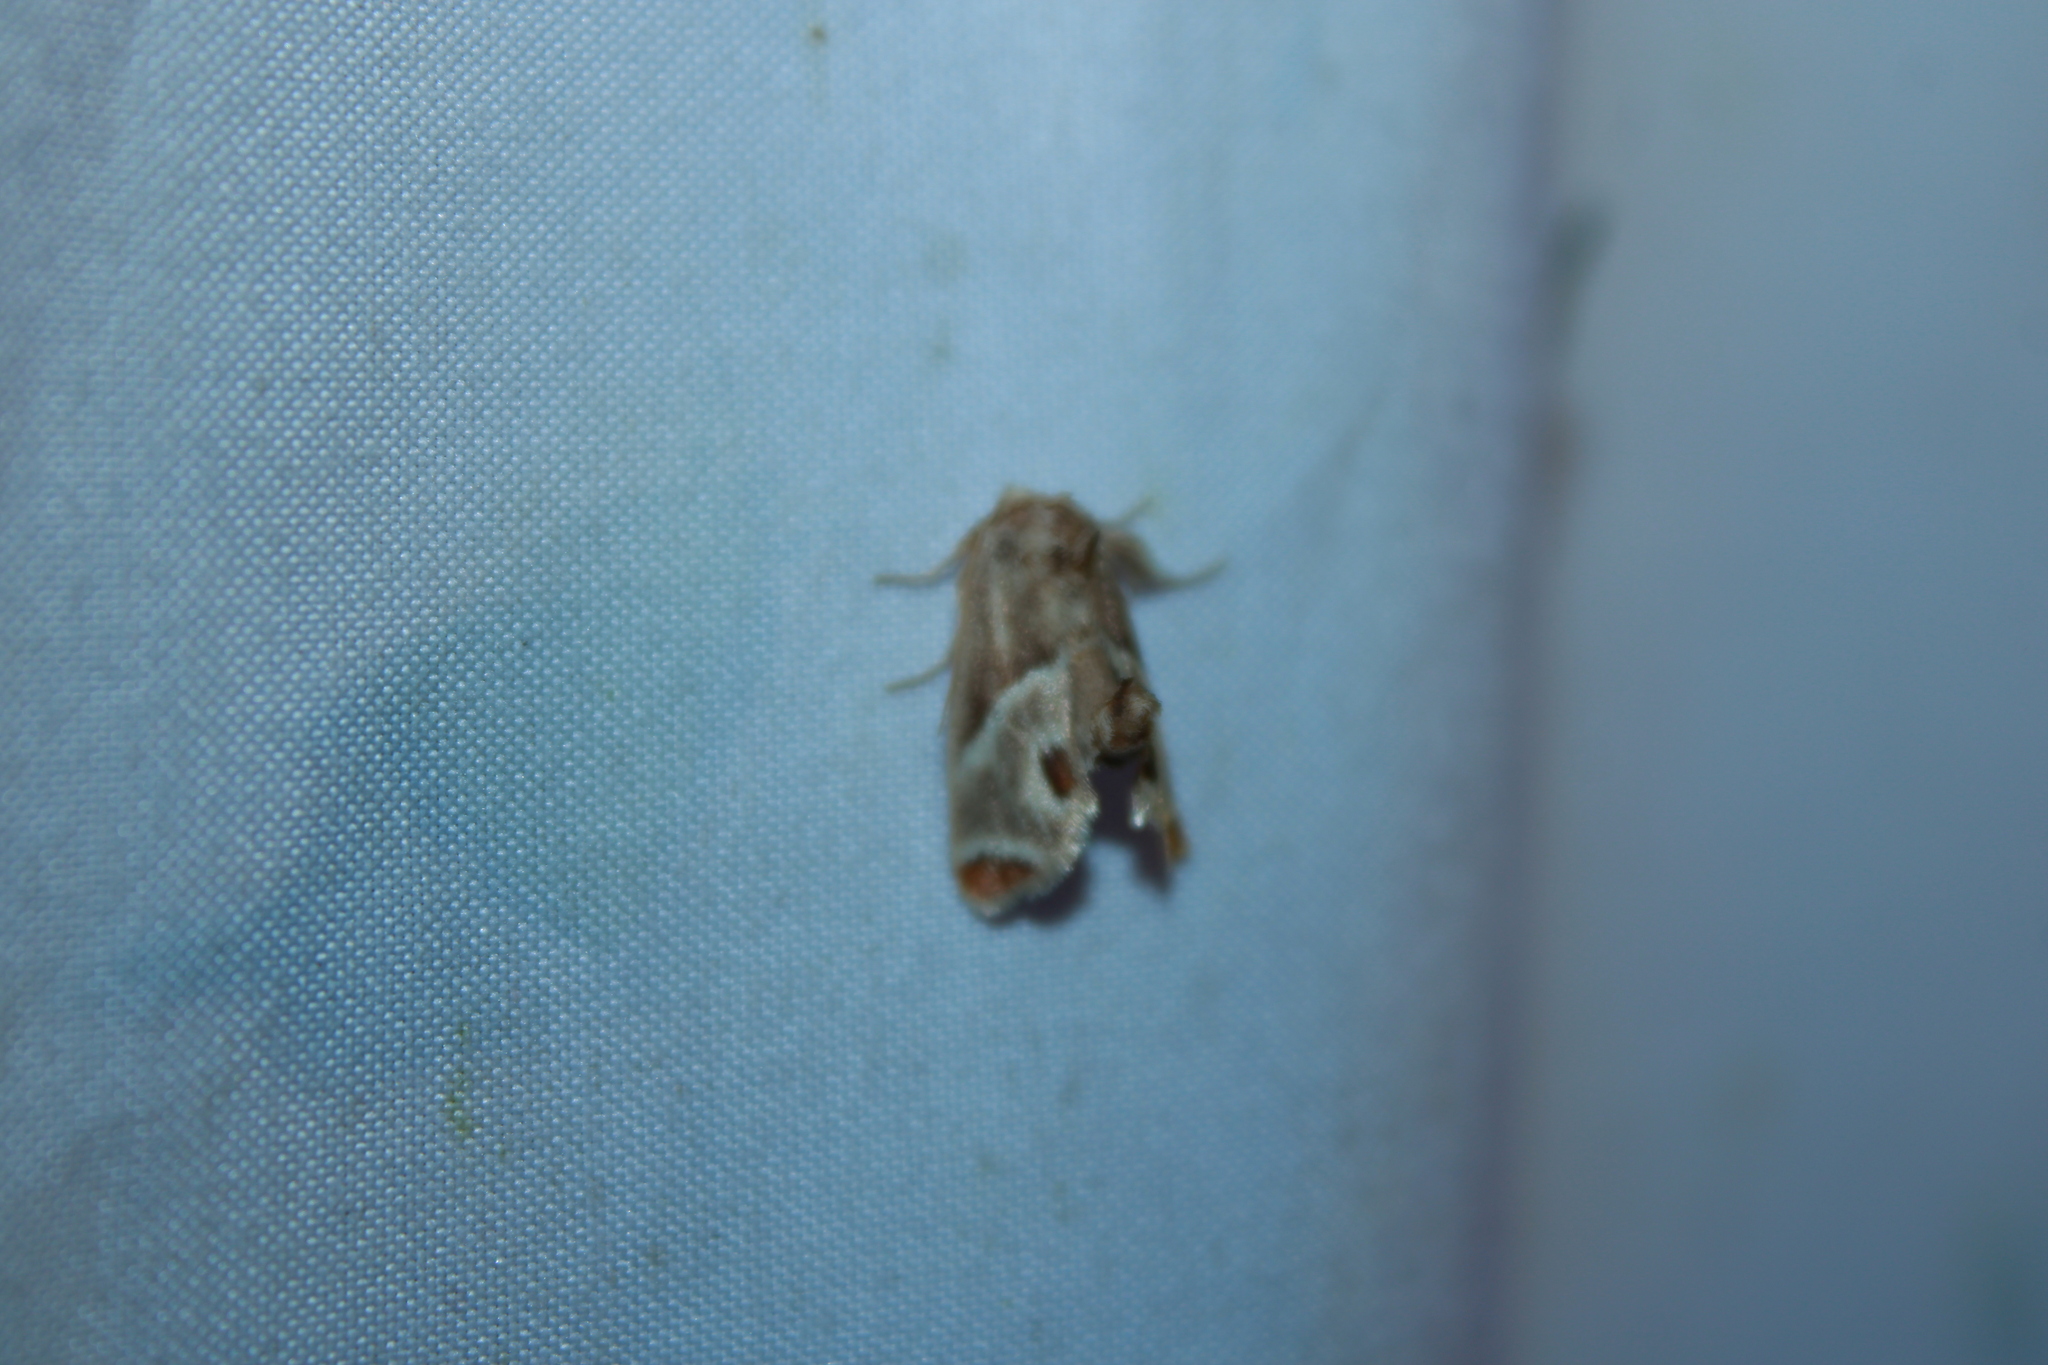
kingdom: Animalia
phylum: Arthropoda
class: Insecta
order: Lepidoptera
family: Limacodidae
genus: Apoda
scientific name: Apoda biguttata
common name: Shagreened slug moth
